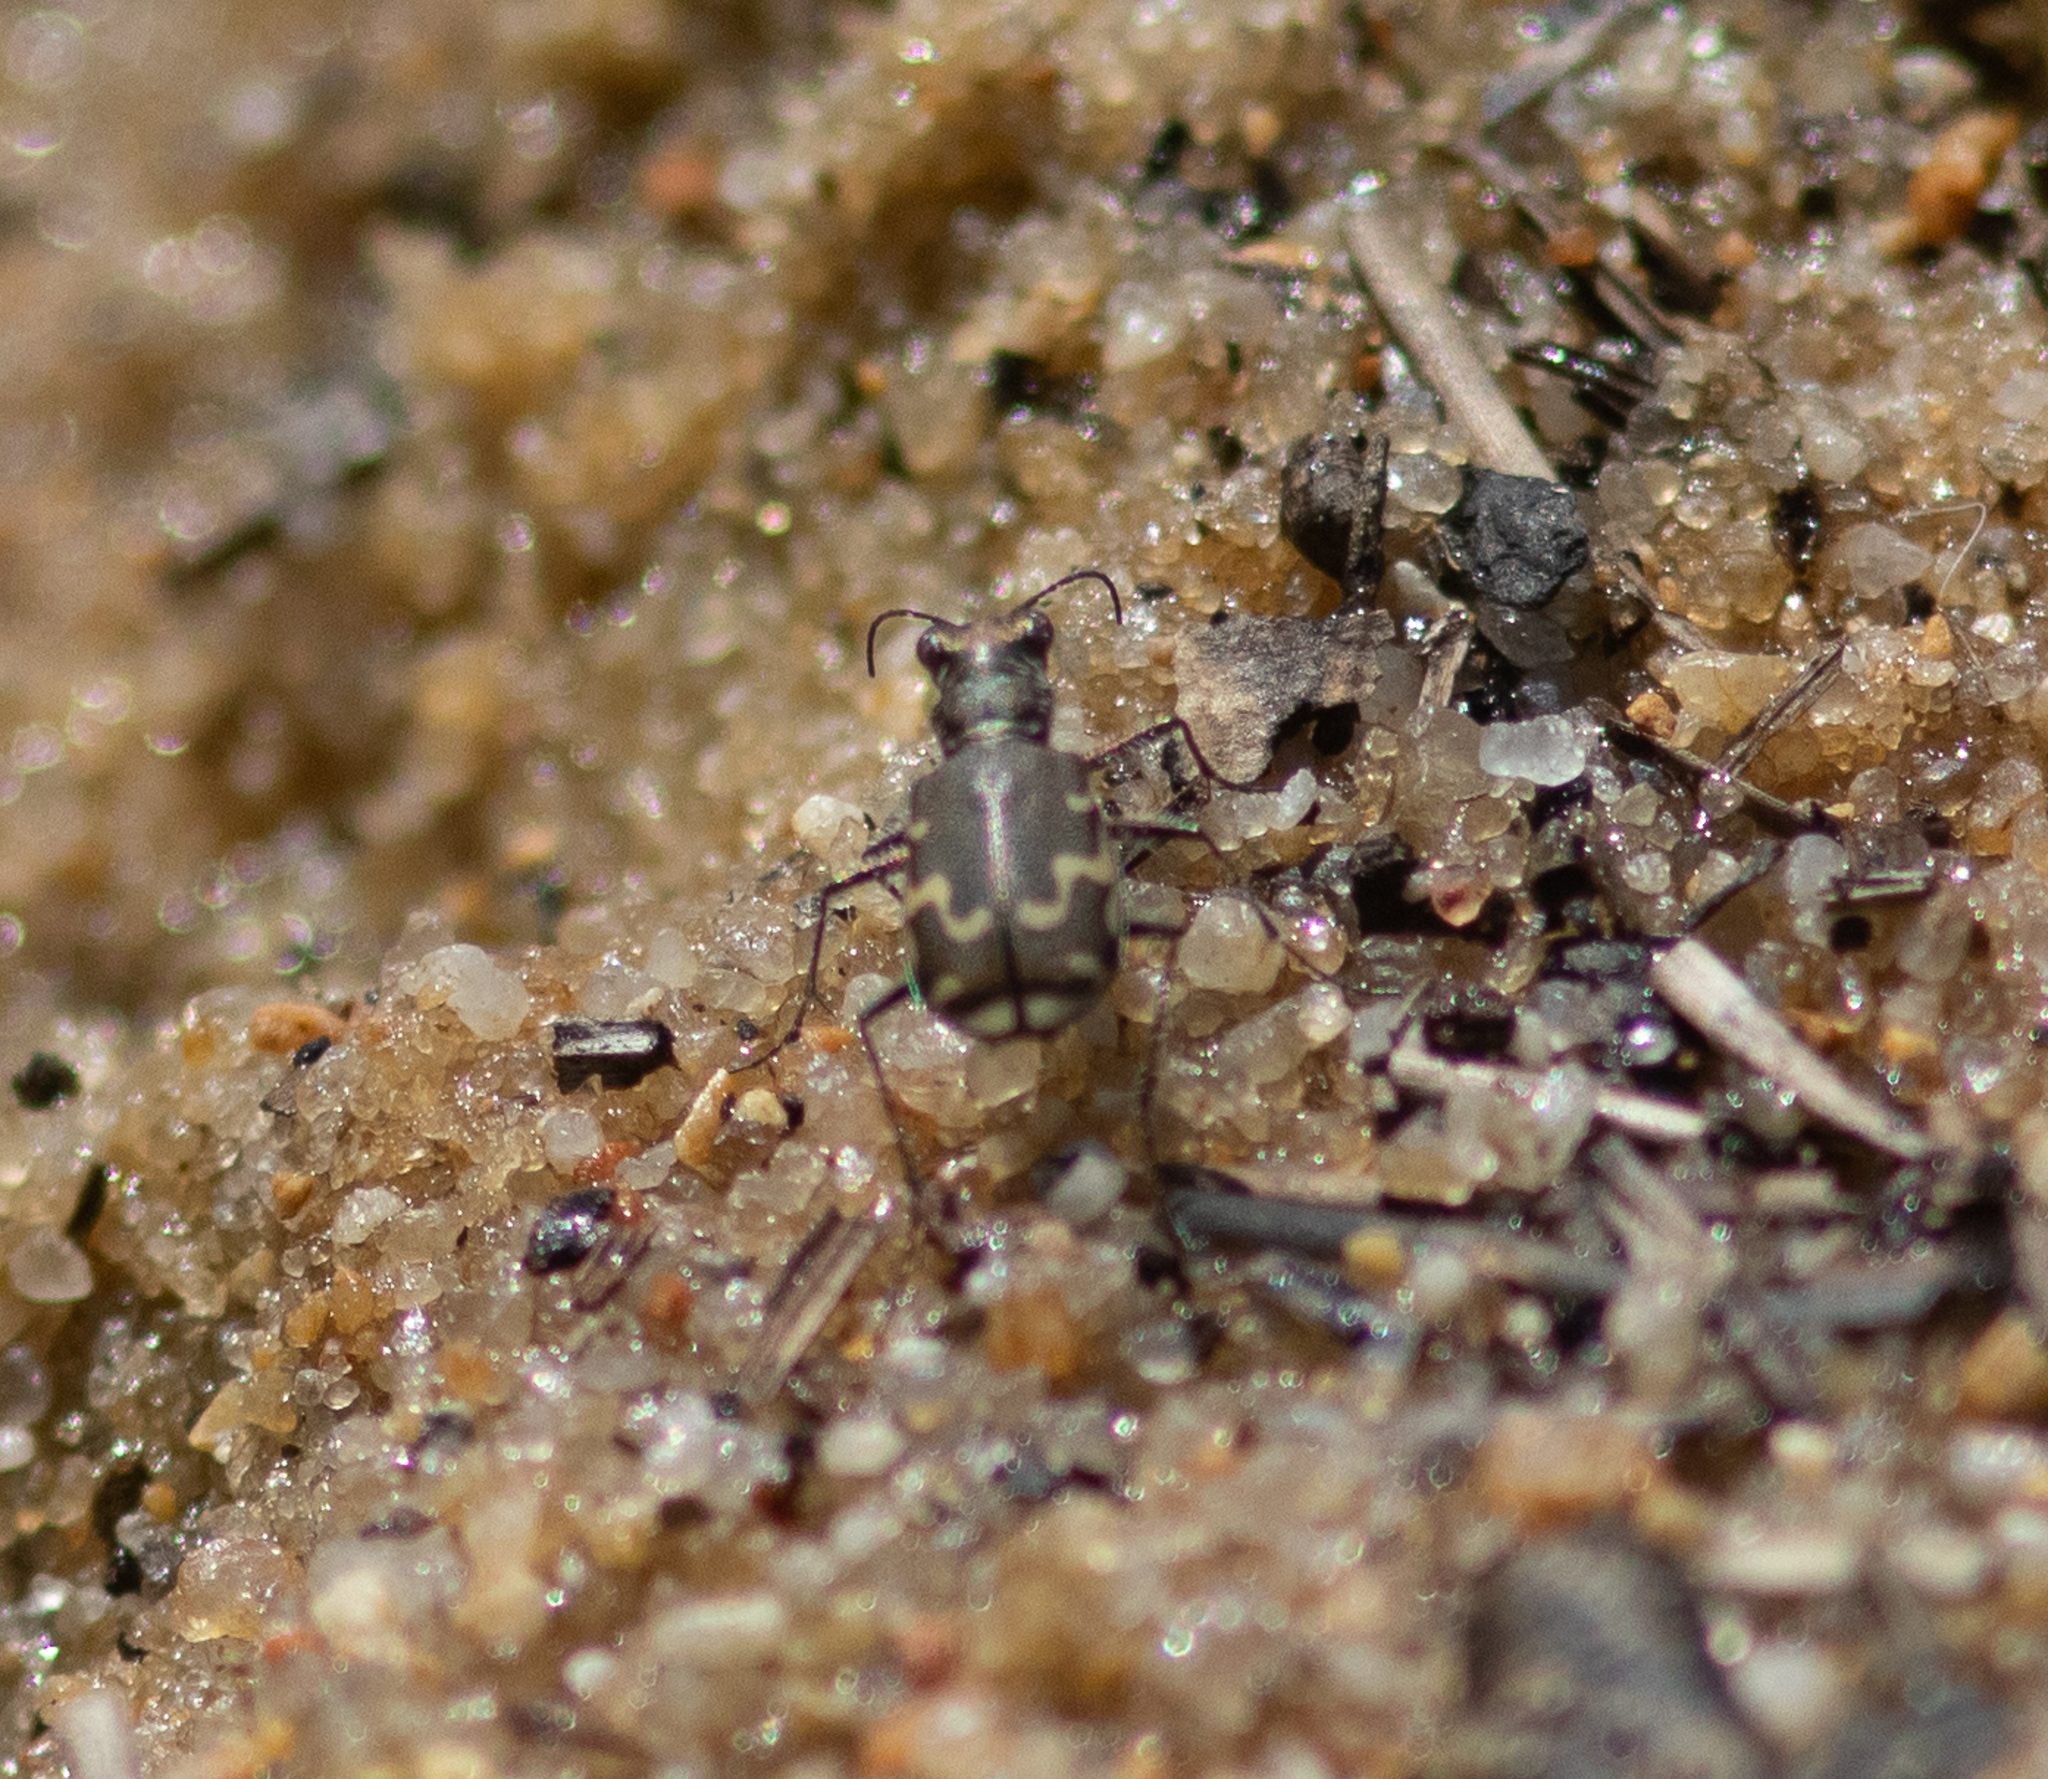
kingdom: Animalia
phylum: Arthropoda
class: Insecta
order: Coleoptera
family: Carabidae
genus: Cicindela
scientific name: Cicindela repanda
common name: Bronzed tiger beetle
